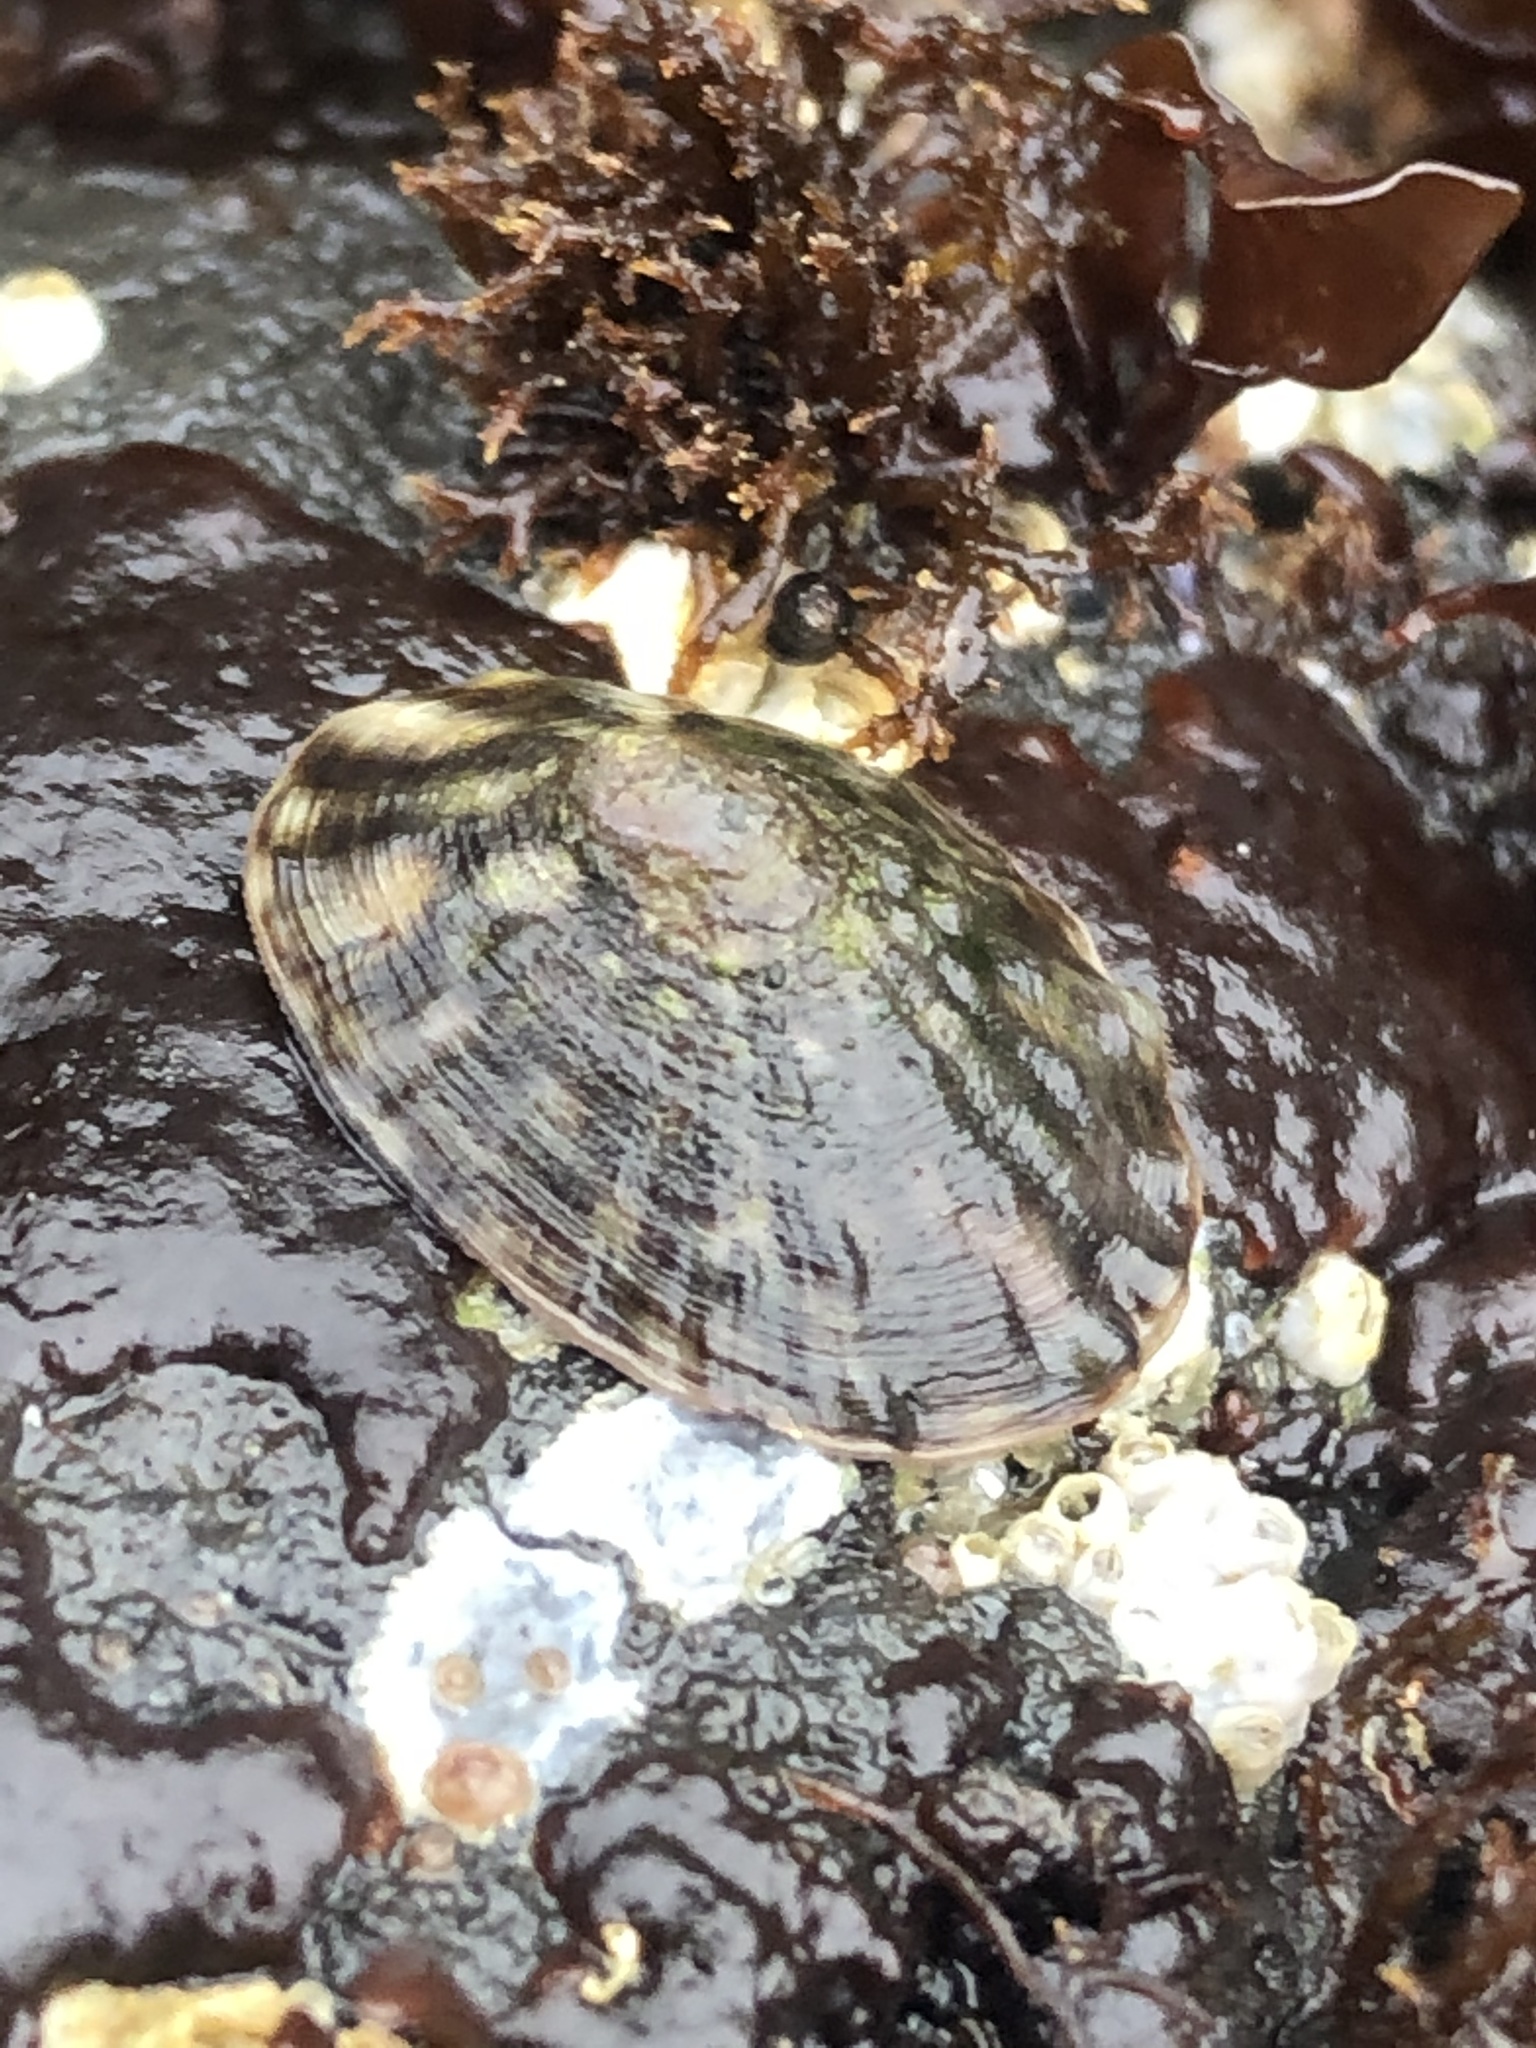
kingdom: Animalia
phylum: Mollusca
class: Gastropoda
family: Lottiidae
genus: Lottia
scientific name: Lottia pelta
